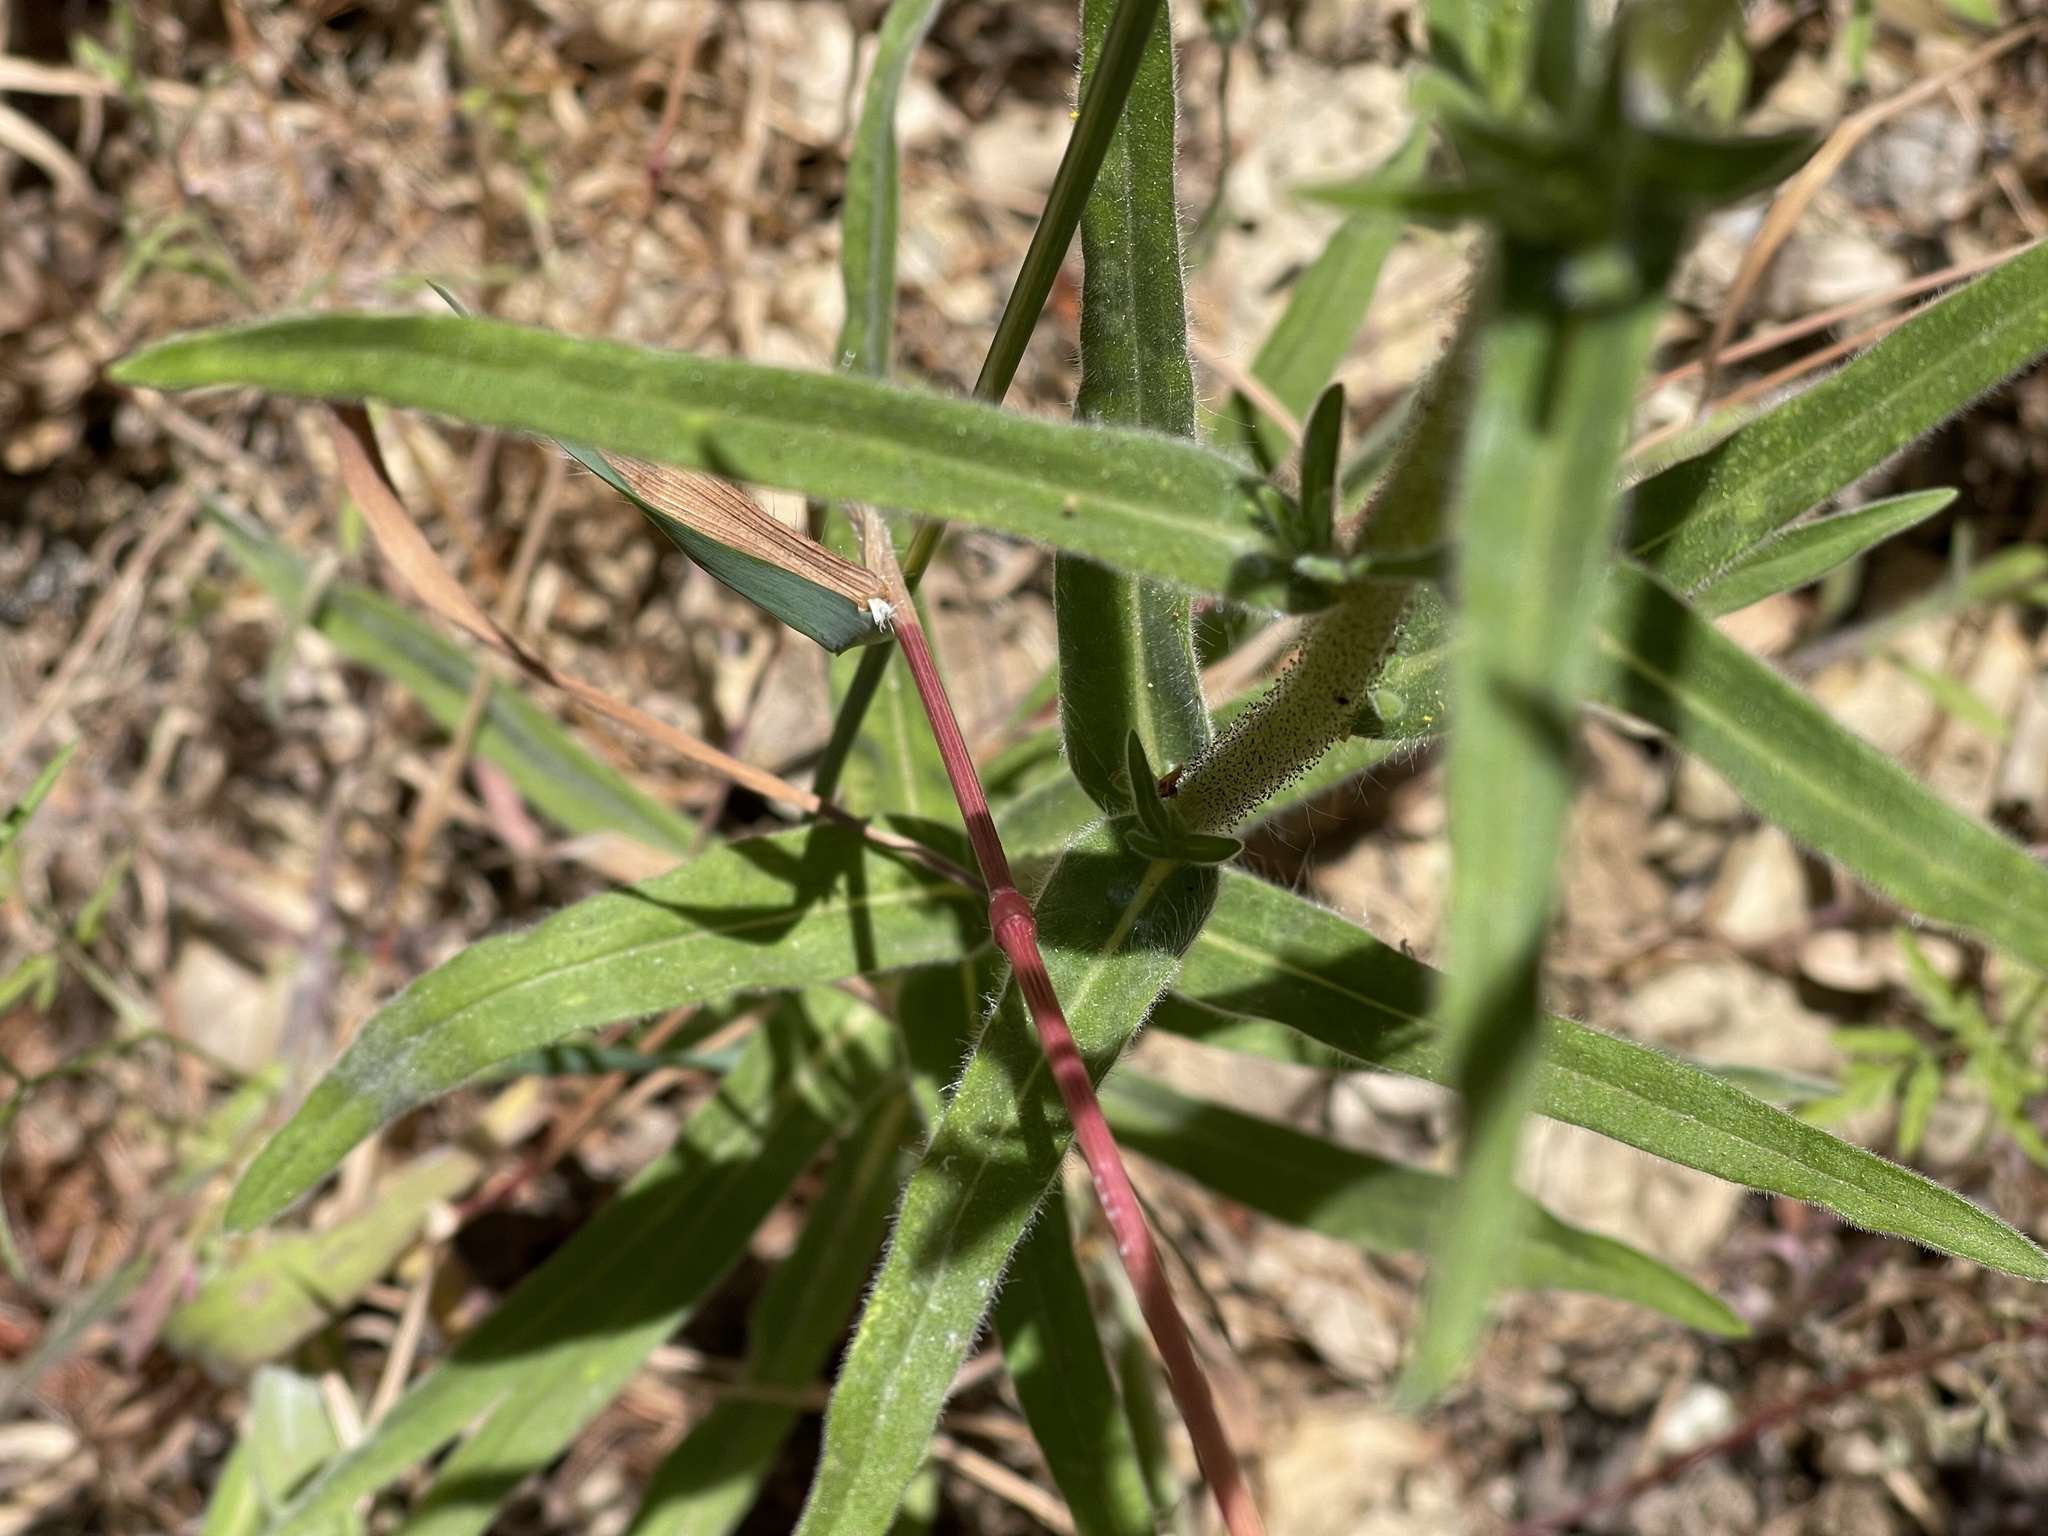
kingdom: Plantae
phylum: Tracheophyta
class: Magnoliopsida
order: Asterales
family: Asteraceae
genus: Madia
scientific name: Madia elegans
